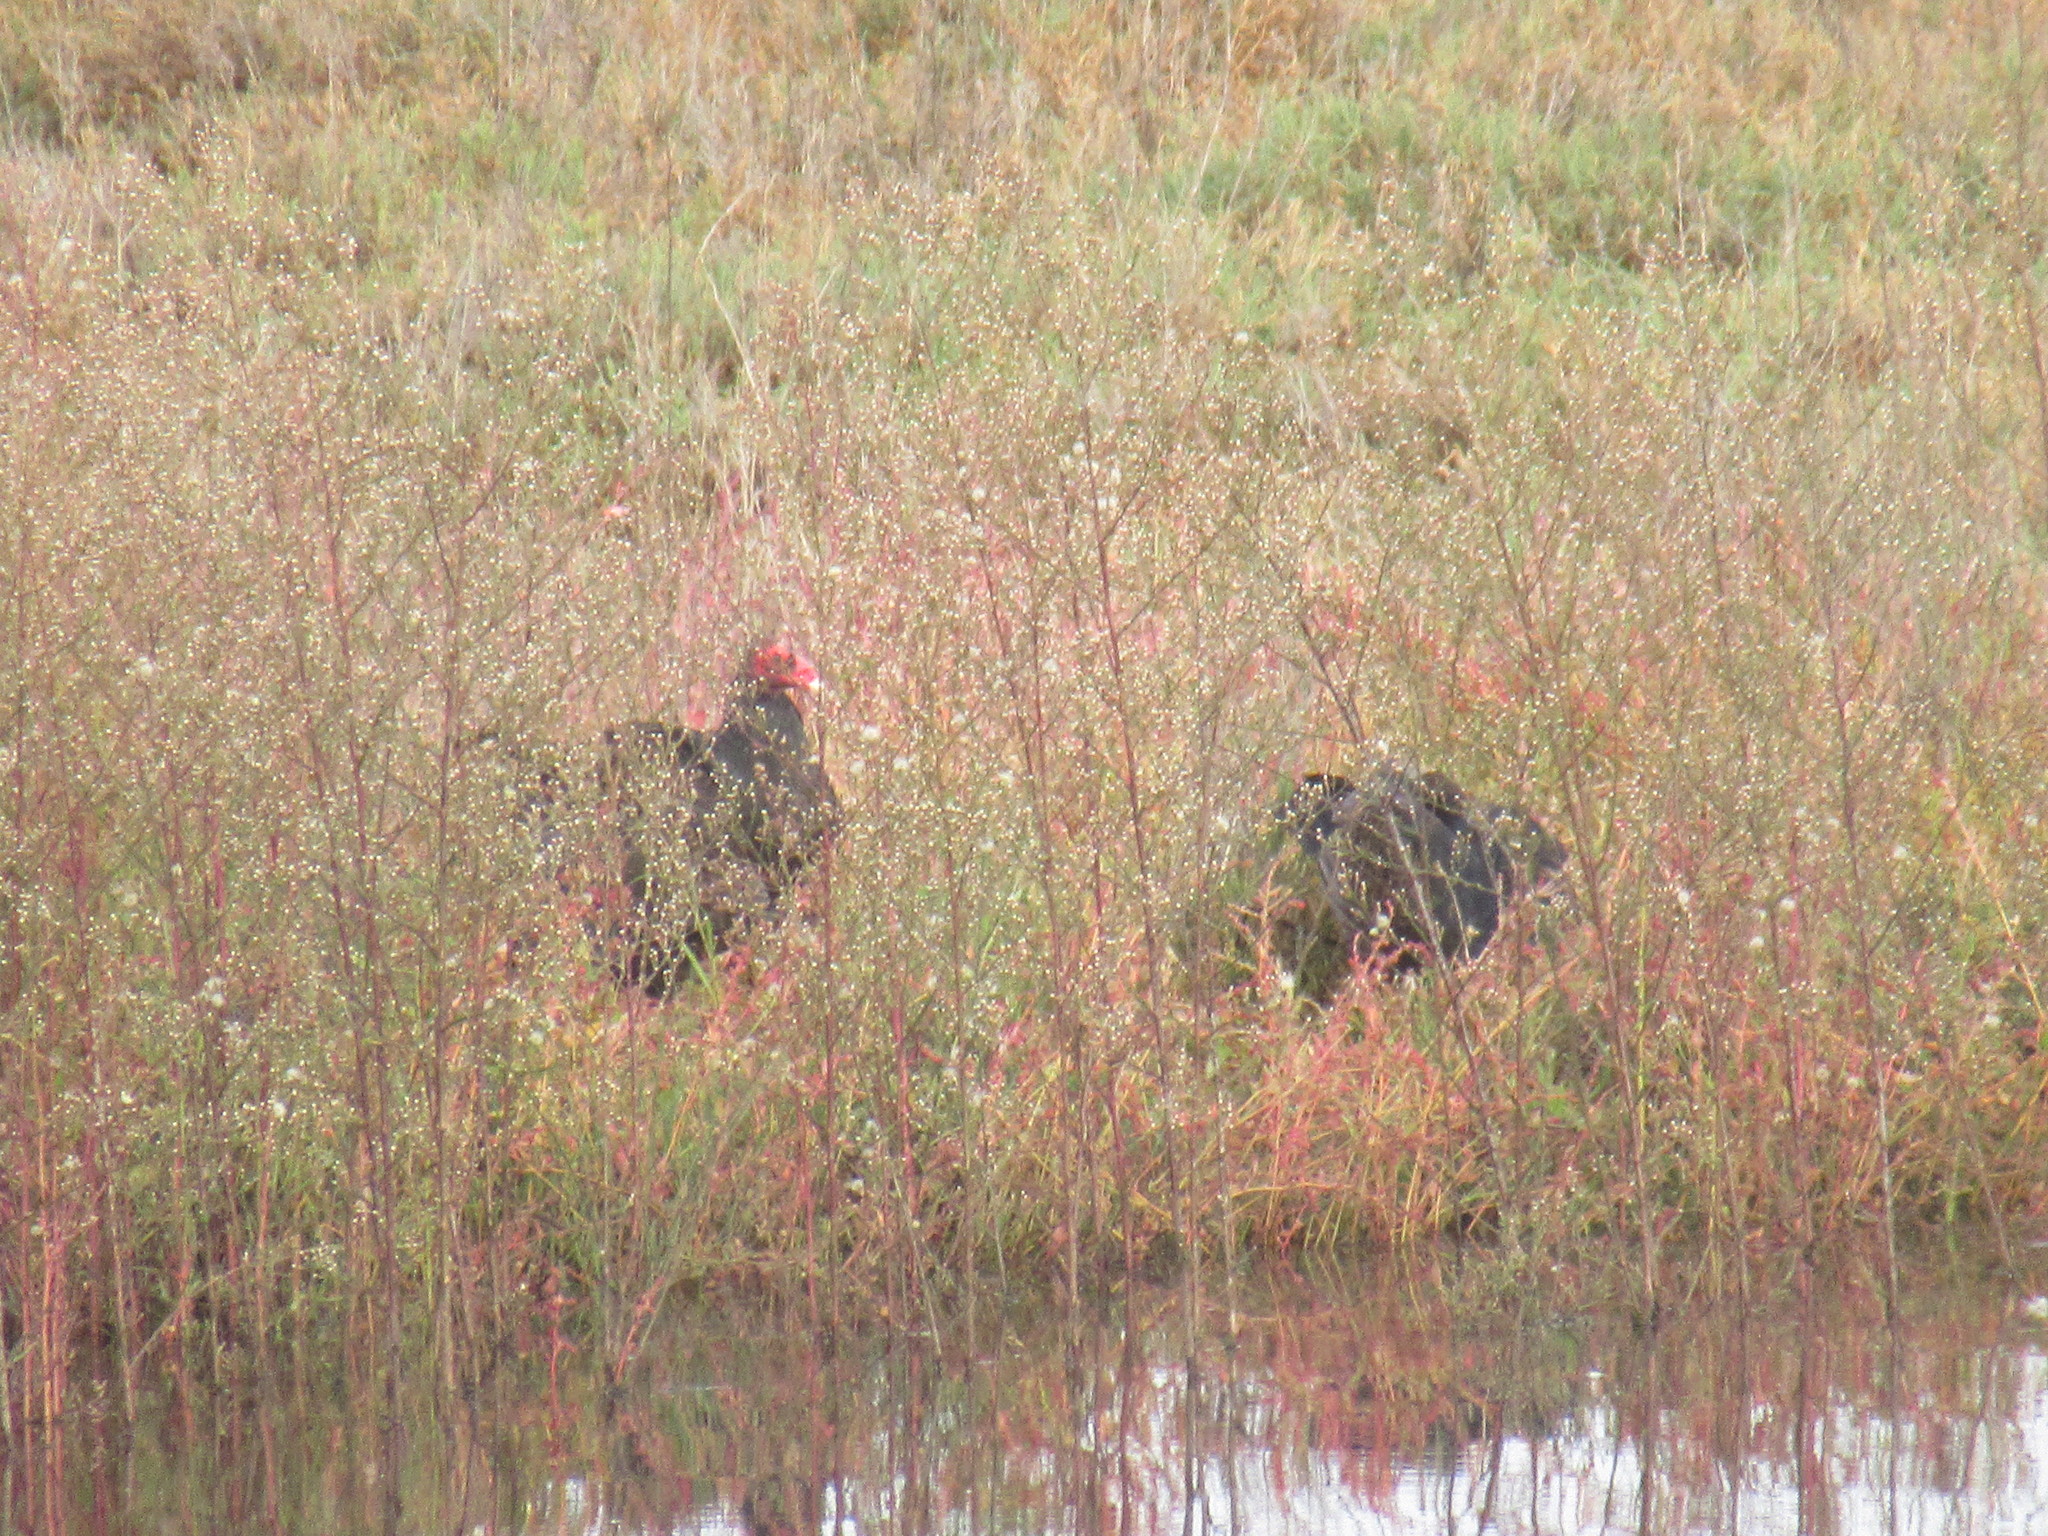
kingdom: Animalia
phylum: Chordata
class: Aves
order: Accipitriformes
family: Cathartidae
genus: Cathartes
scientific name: Cathartes aura
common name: Turkey vulture
